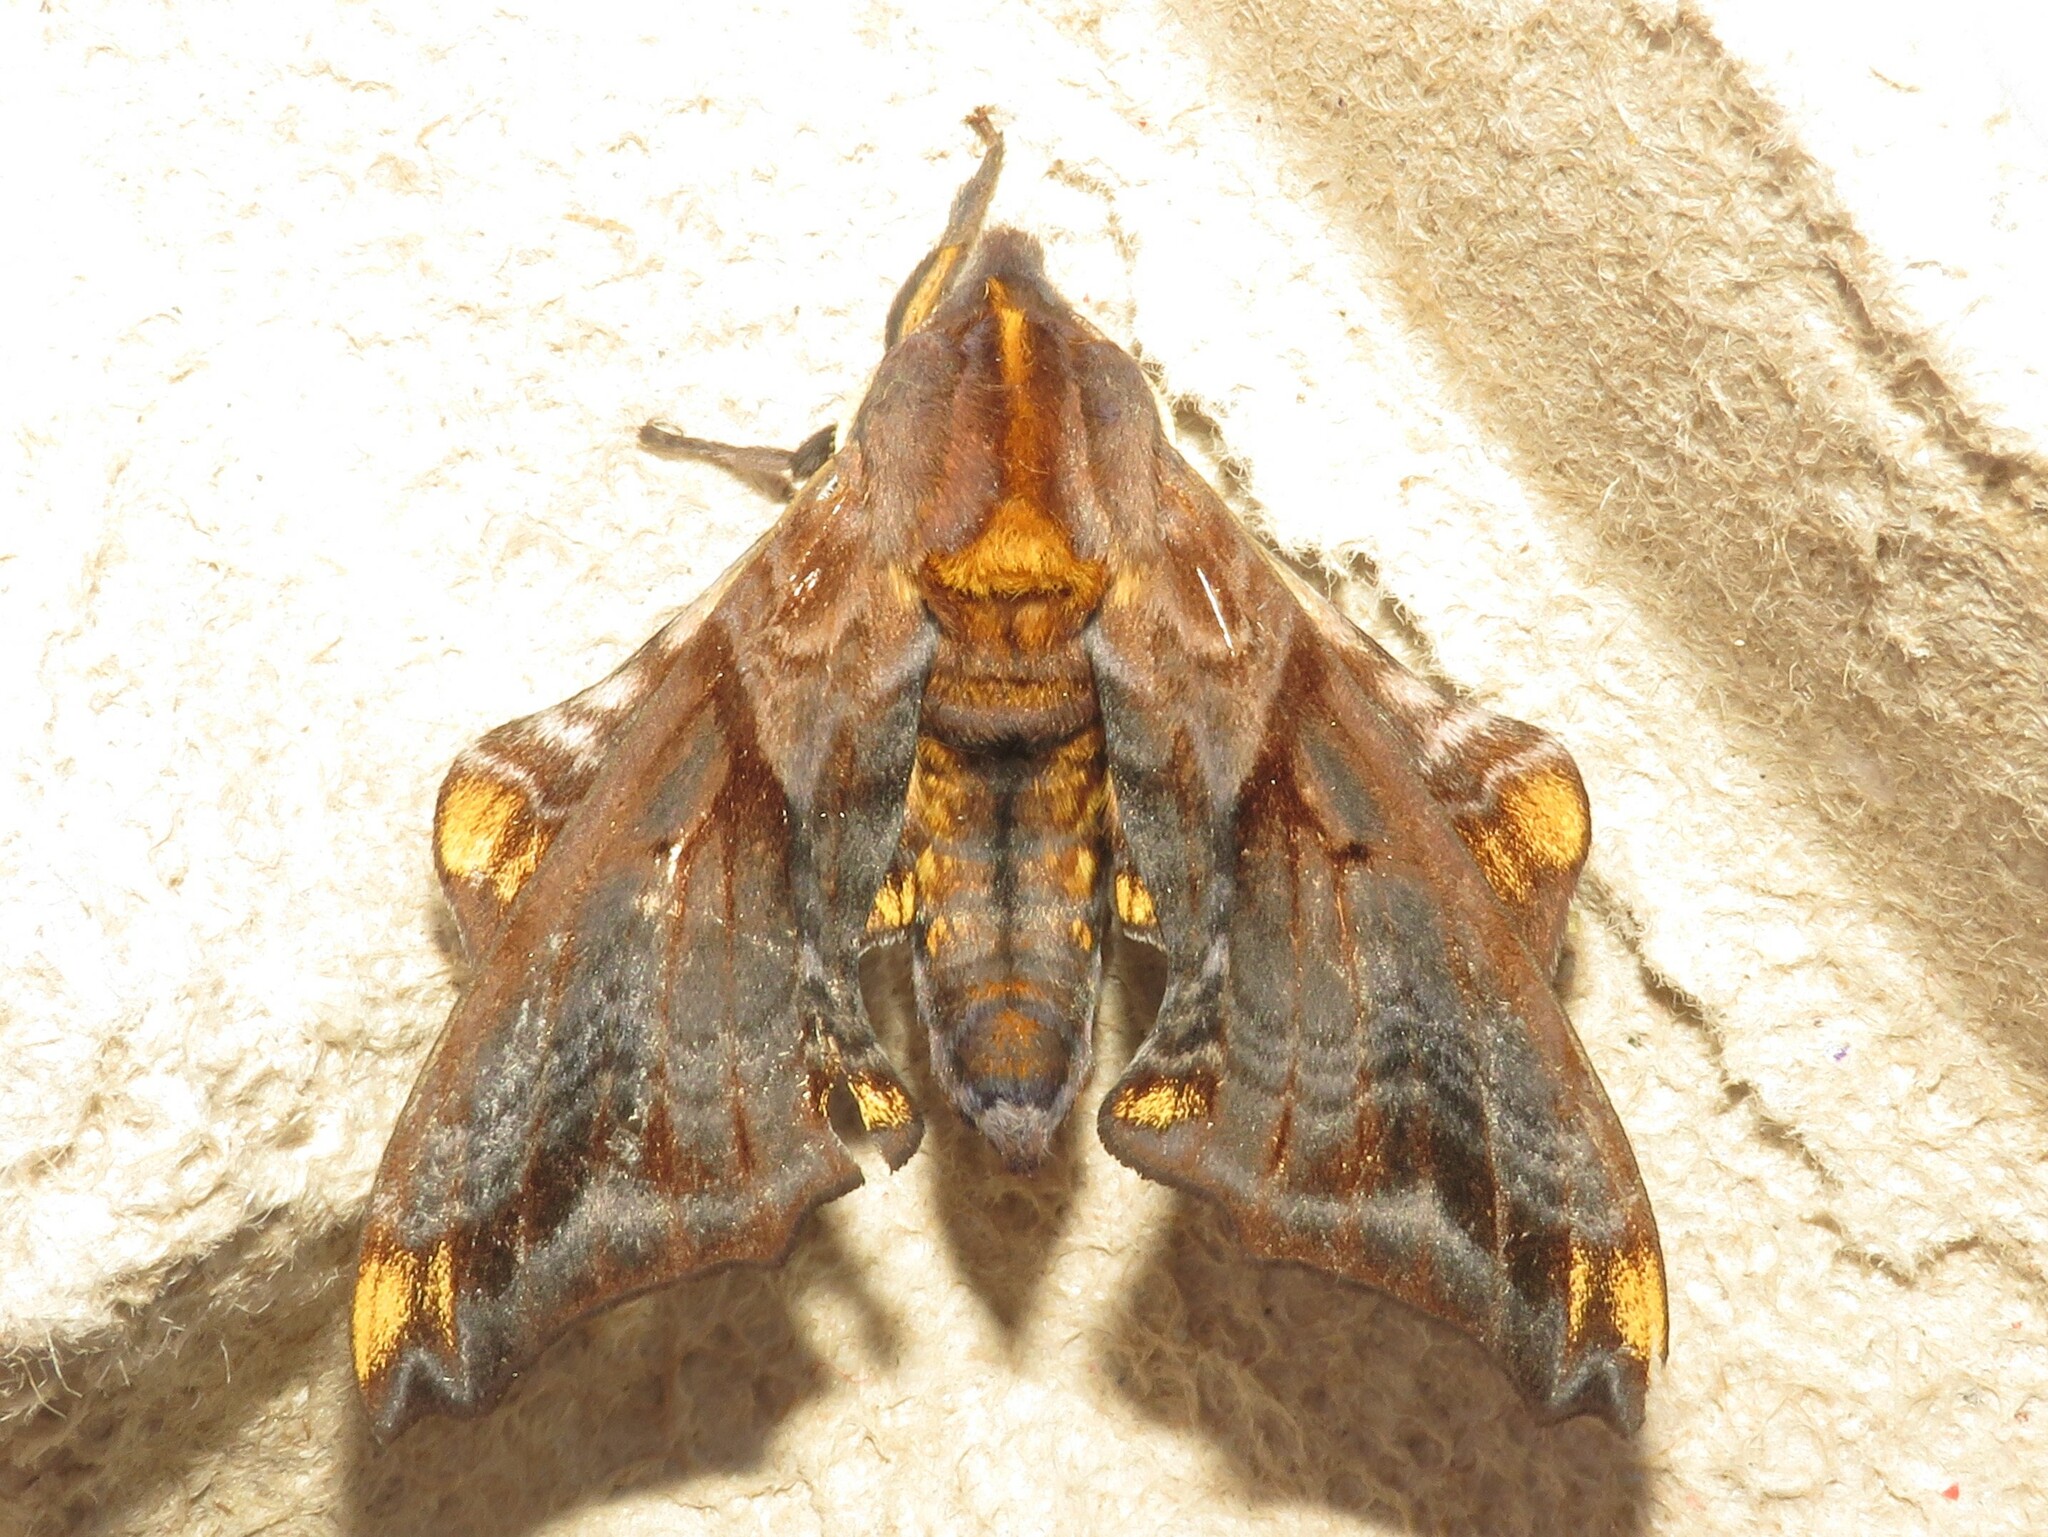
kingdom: Animalia
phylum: Arthropoda
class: Insecta
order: Lepidoptera
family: Sphingidae
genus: Paonias
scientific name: Paonias myops
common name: Small-eyed sphinx
